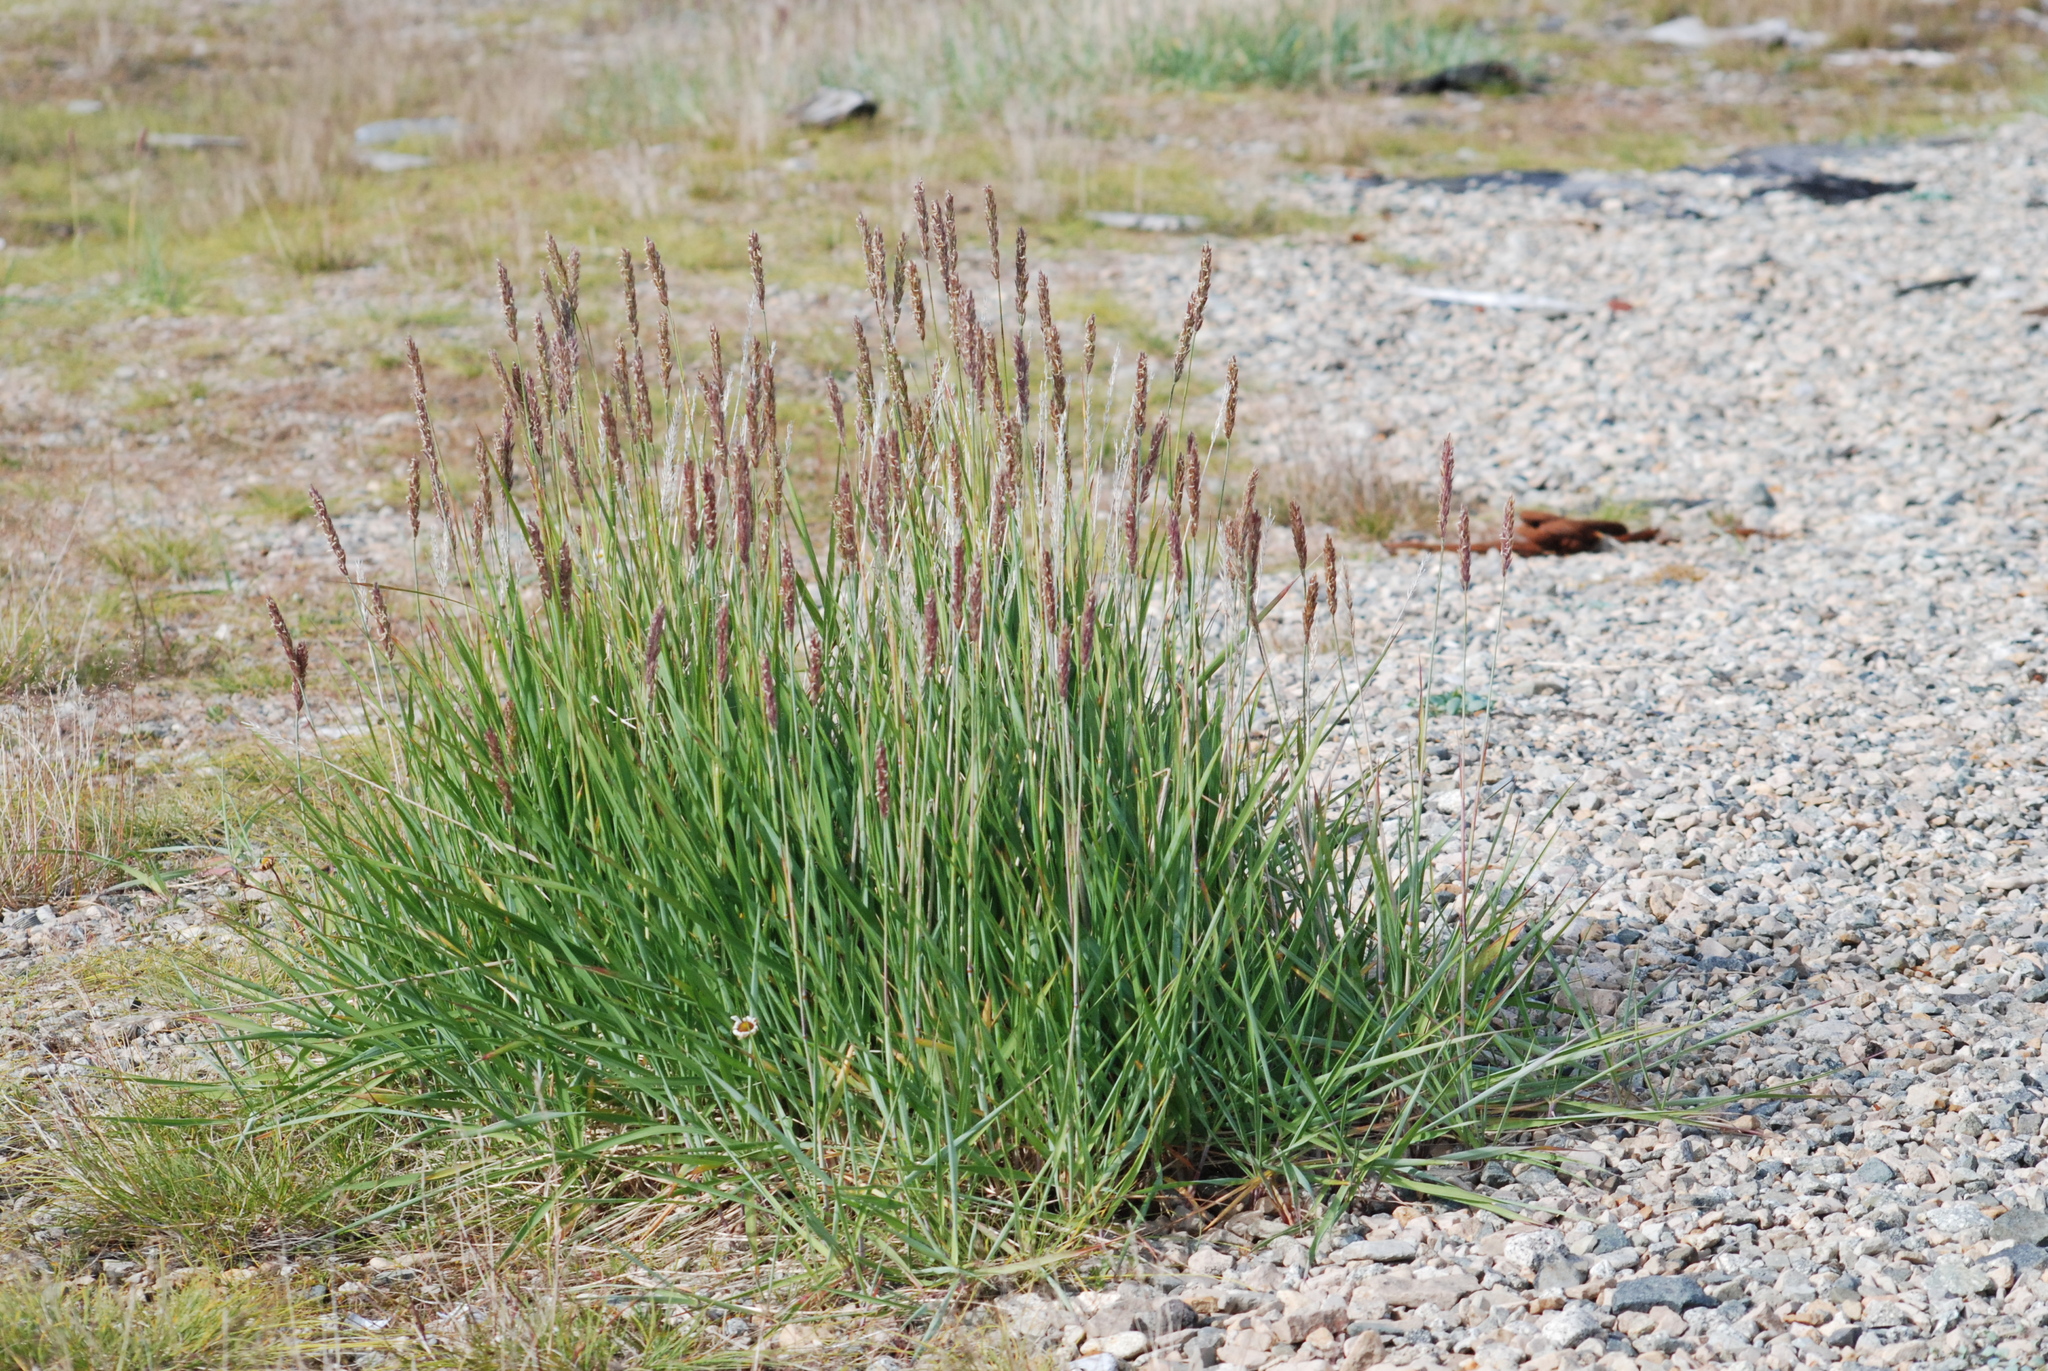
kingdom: Plantae
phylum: Tracheophyta
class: Liliopsida
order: Poales
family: Poaceae
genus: Leymus
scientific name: Leymus villosissimus
